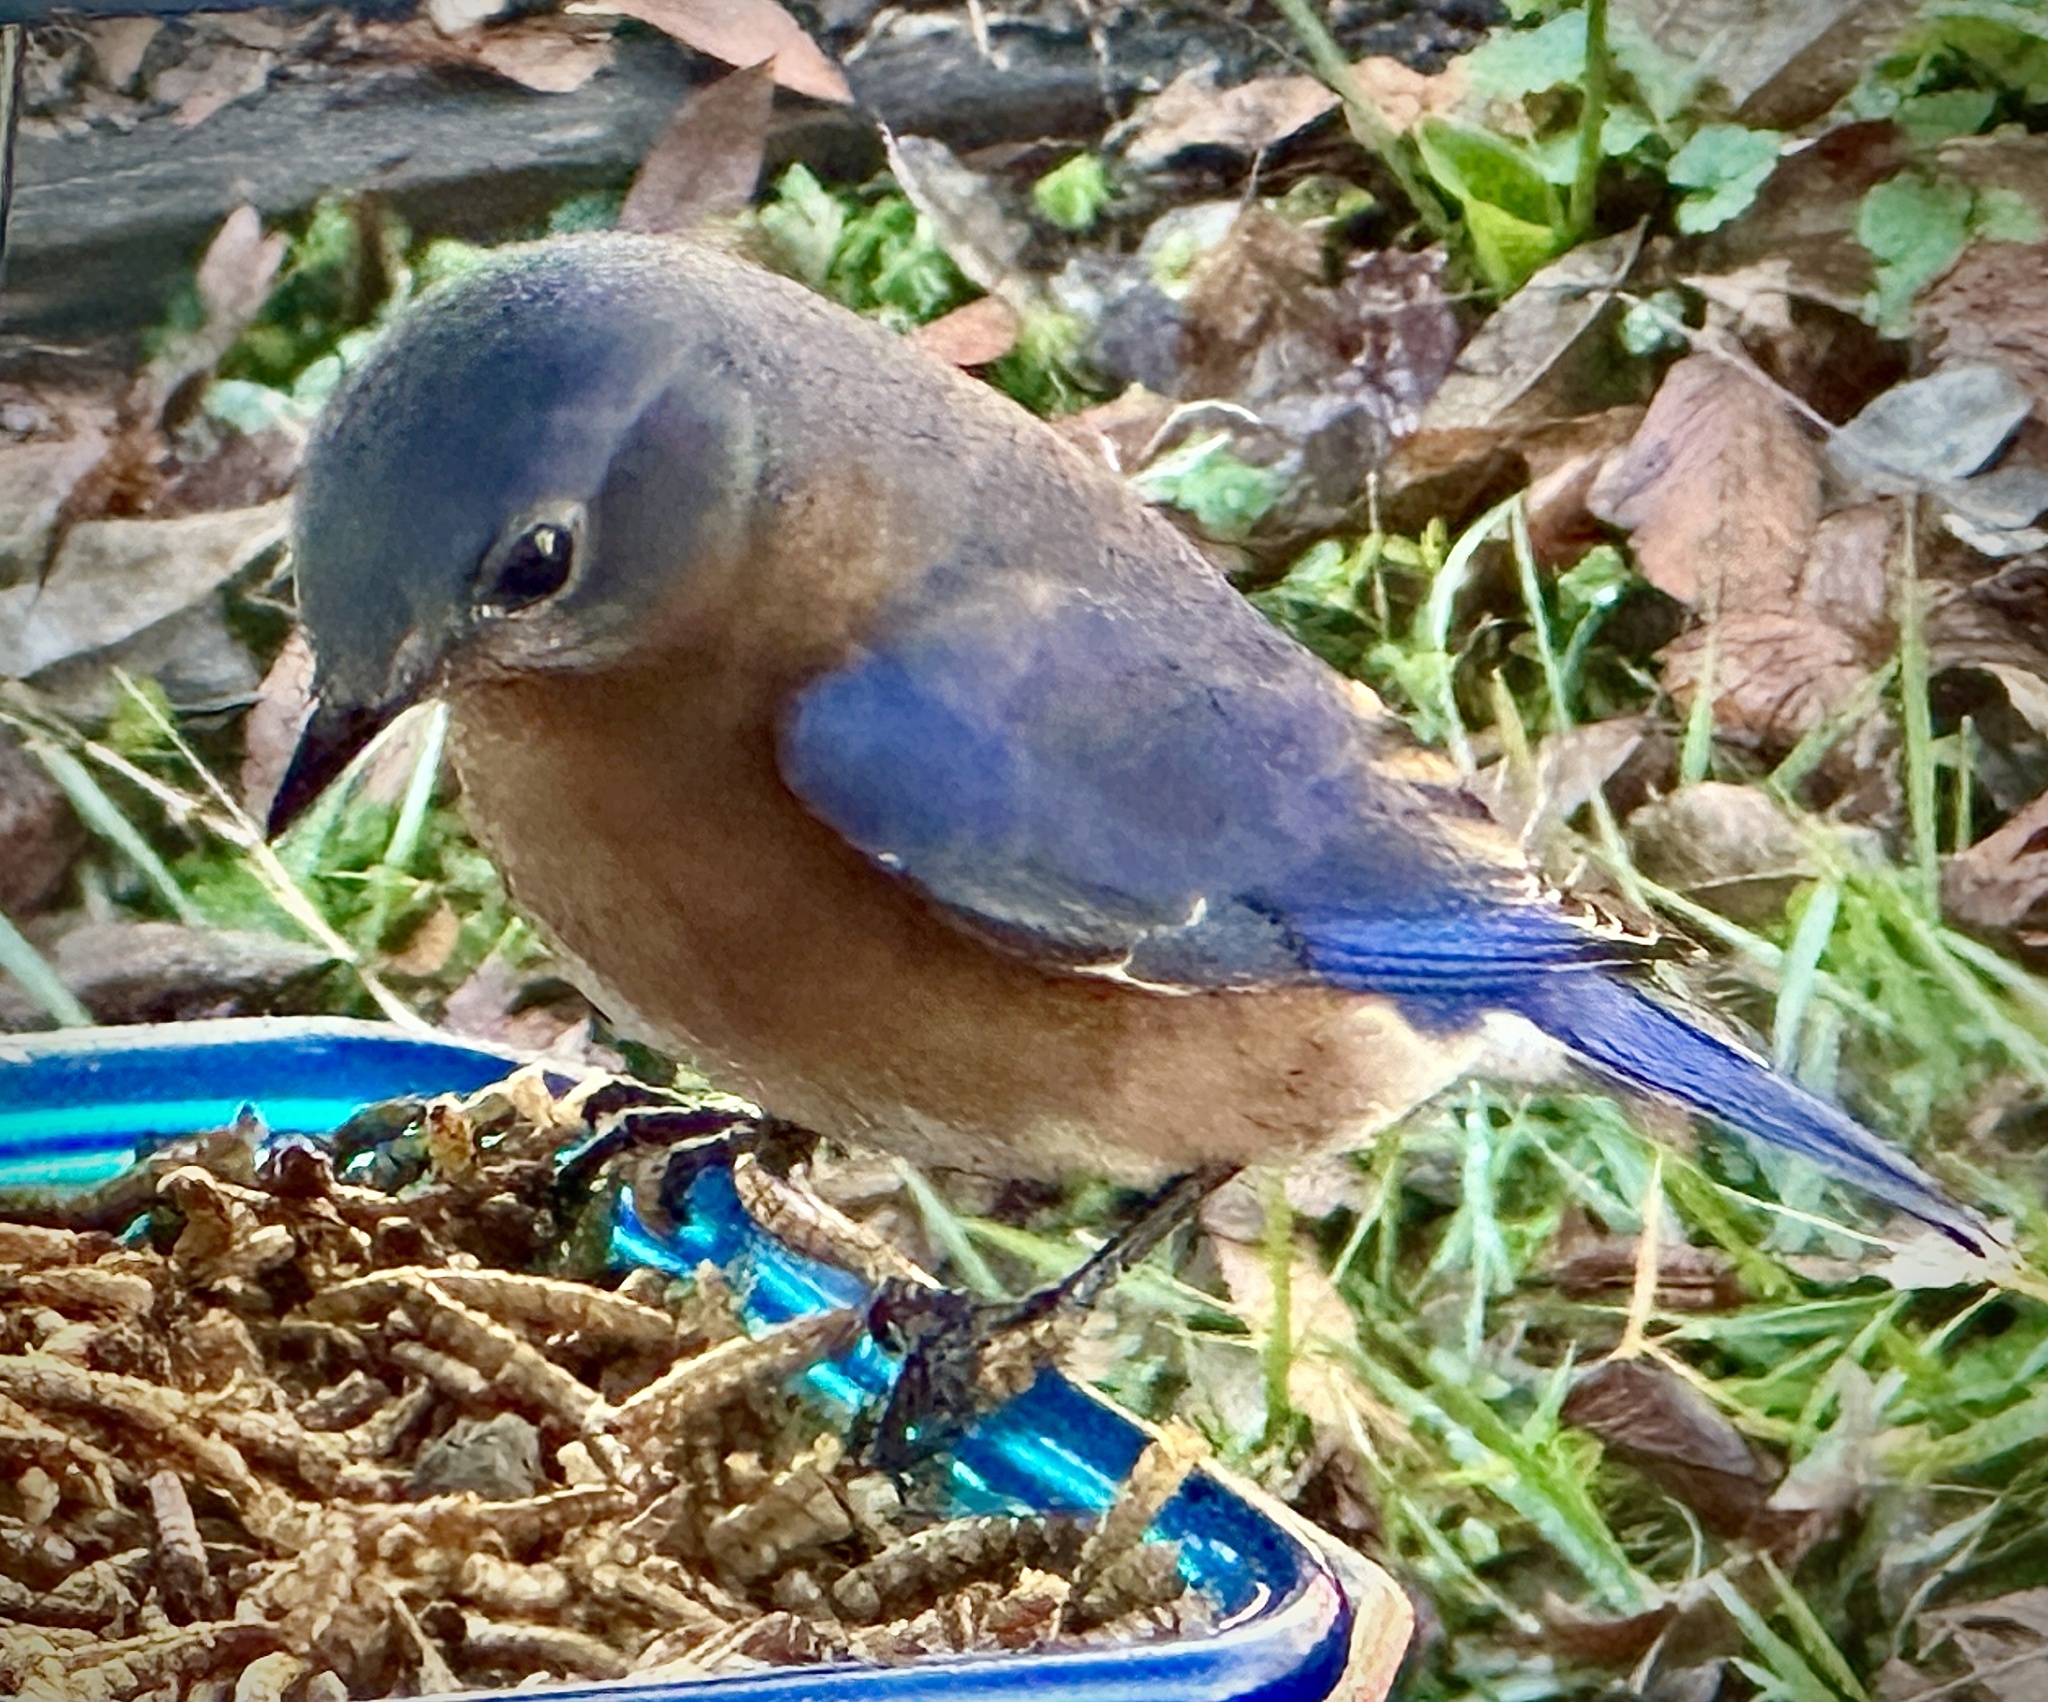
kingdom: Animalia
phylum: Chordata
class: Aves
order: Passeriformes
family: Turdidae
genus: Sialia
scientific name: Sialia sialis
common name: Eastern bluebird
